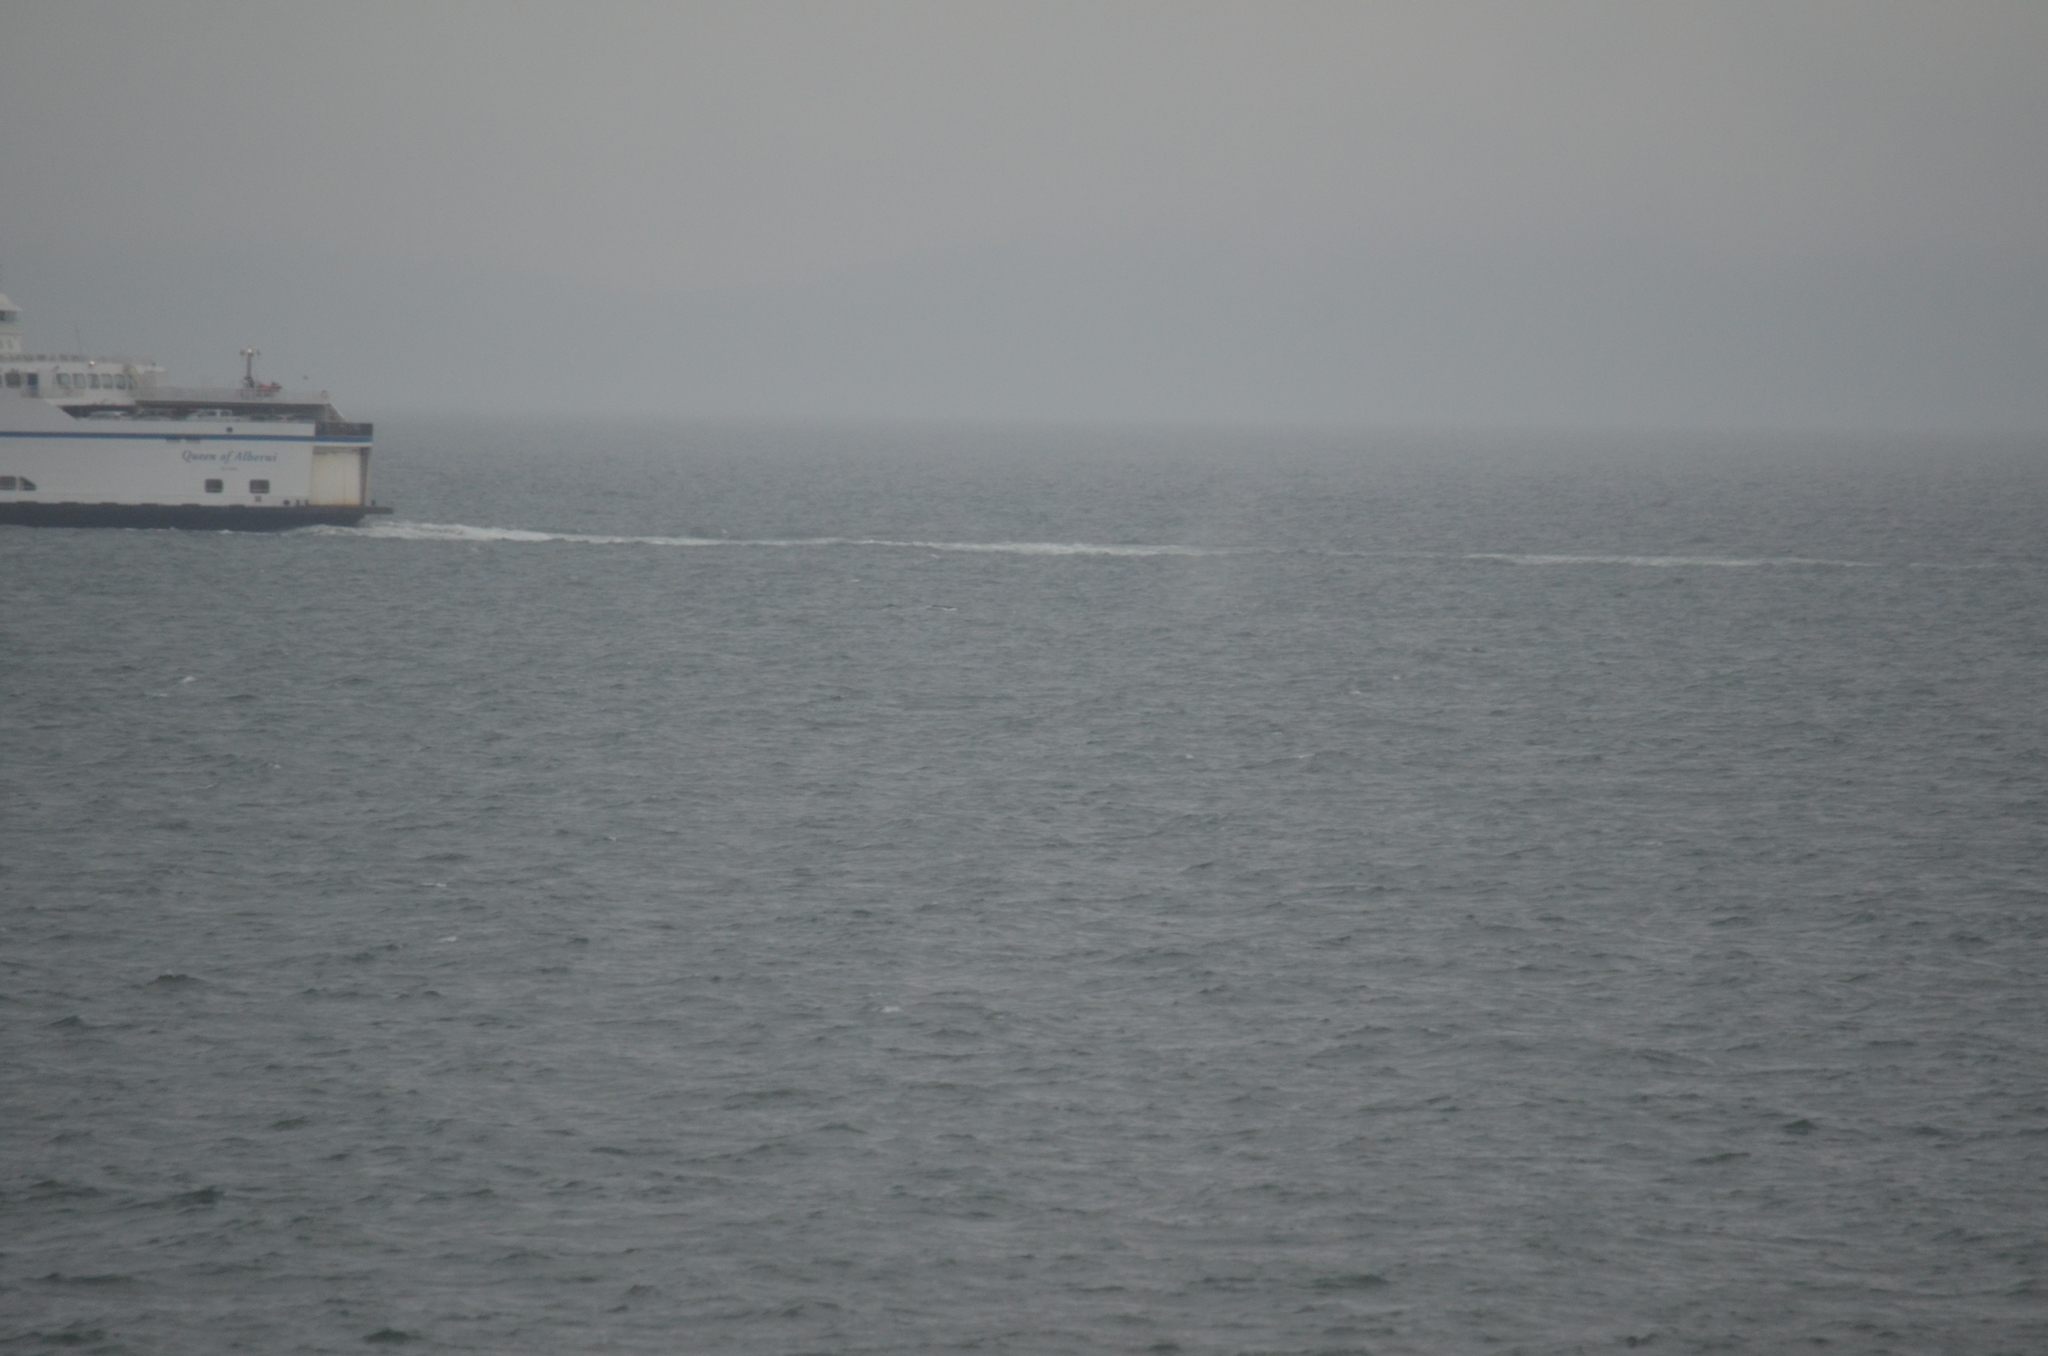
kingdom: Animalia
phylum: Chordata
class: Mammalia
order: Cetacea
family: Balaenopteridae
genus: Megaptera
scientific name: Megaptera novaeangliae
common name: Humpback whale
